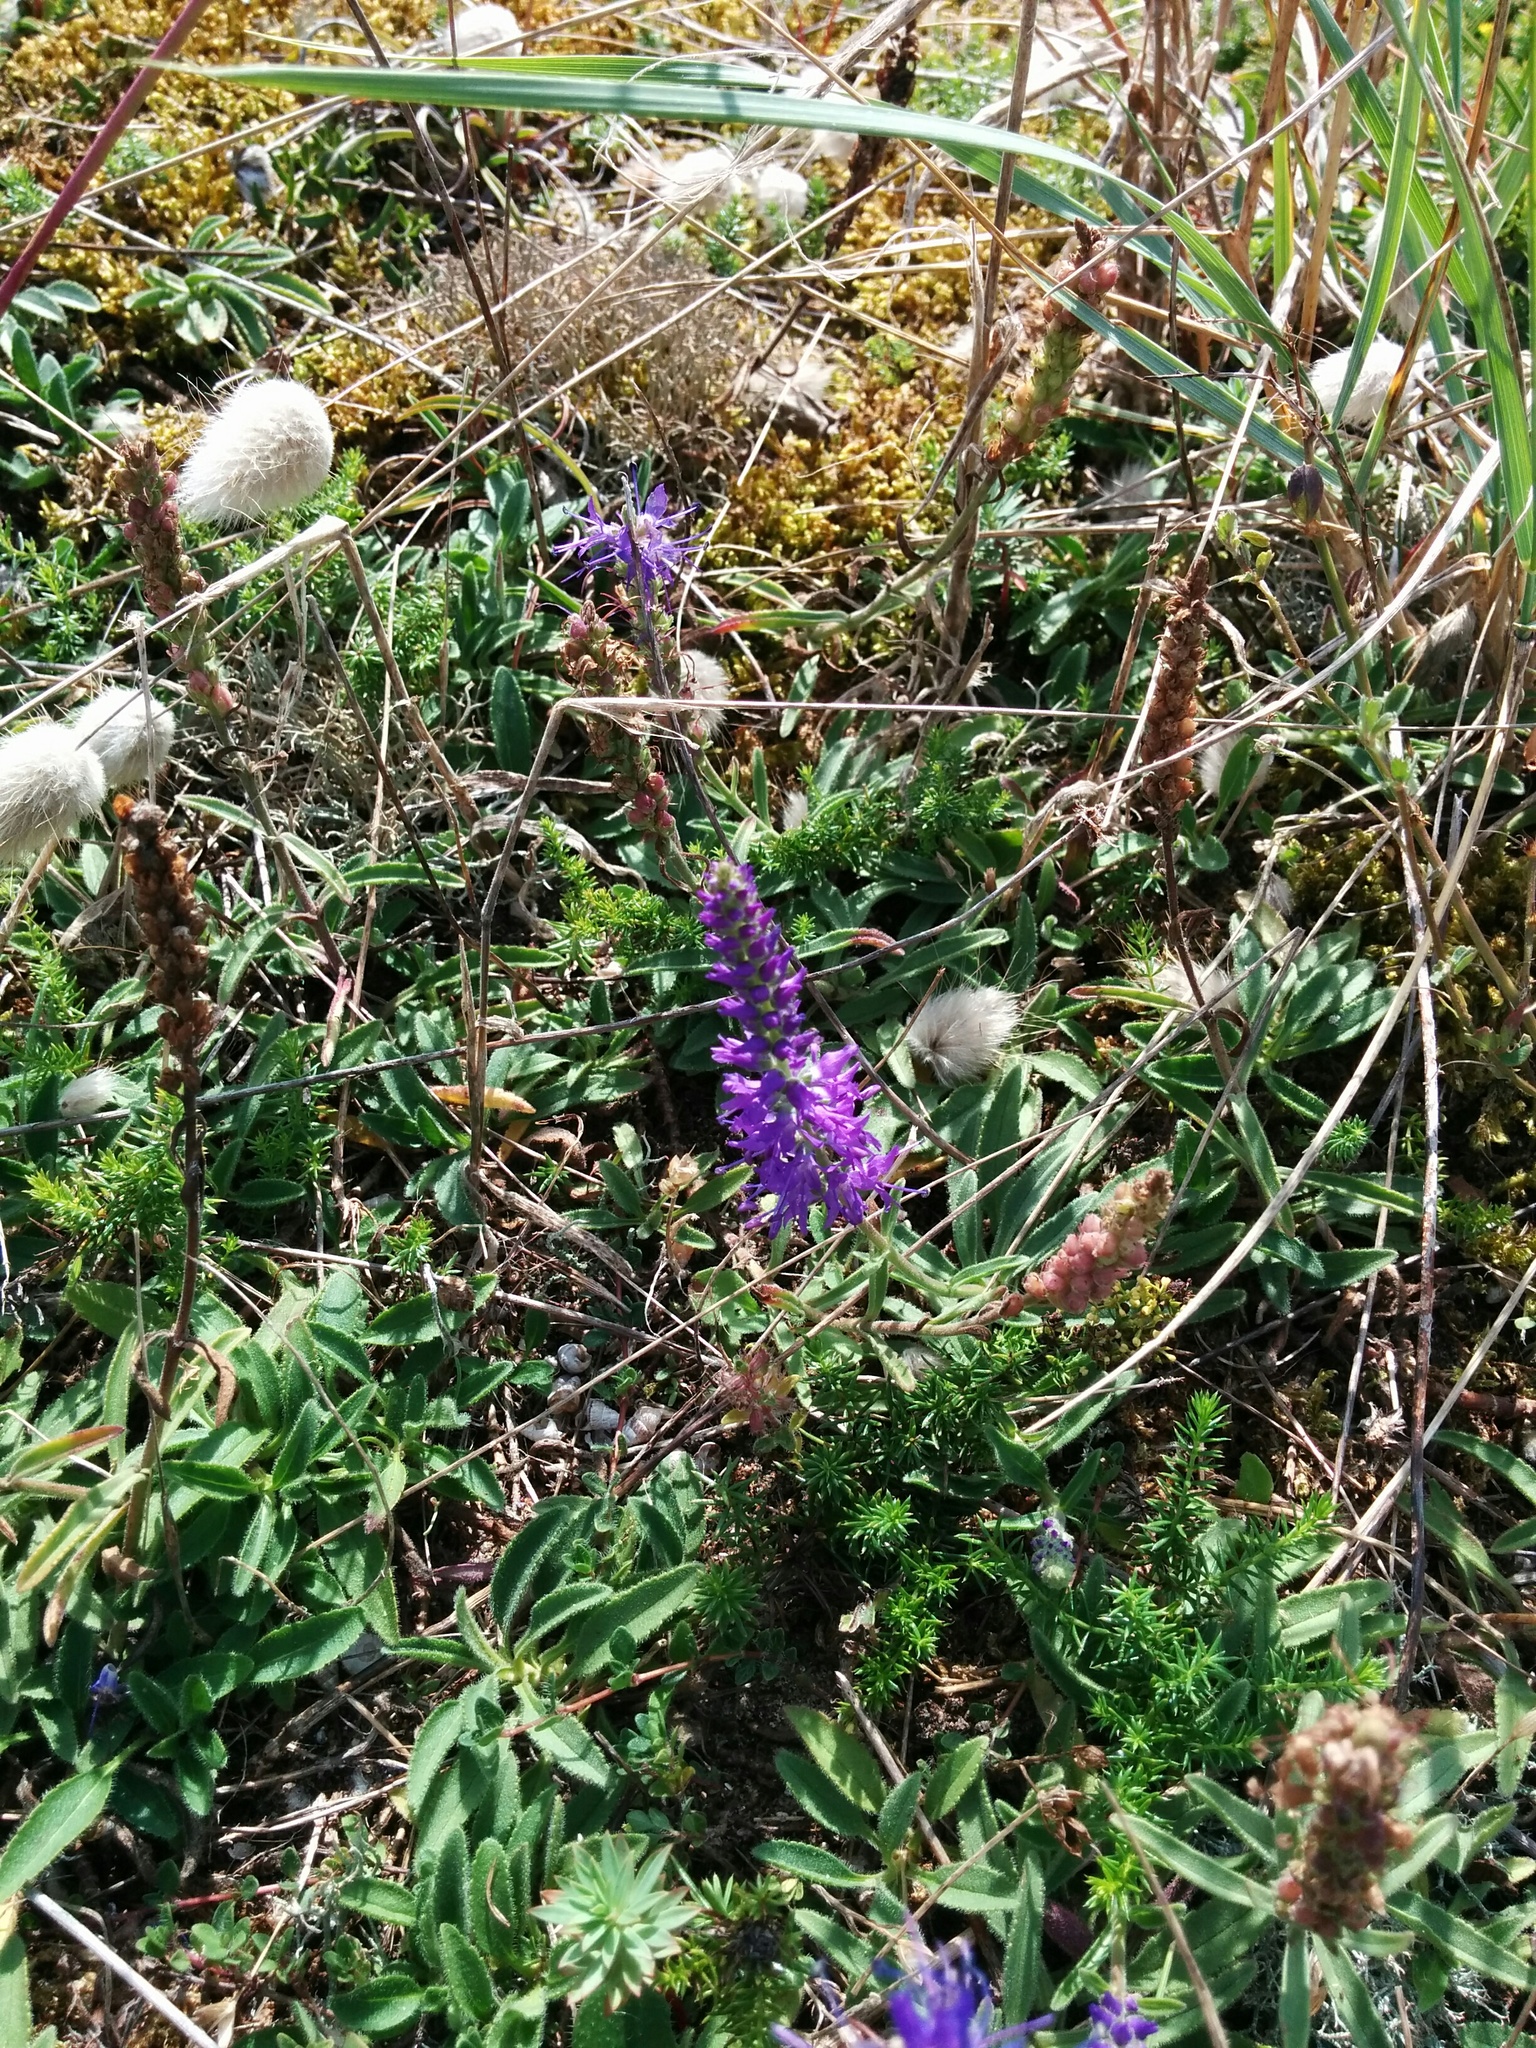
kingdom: Plantae
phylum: Tracheophyta
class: Magnoliopsida
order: Lamiales
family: Plantaginaceae
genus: Veronica
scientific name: Veronica spicata
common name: Spiked speedwell
